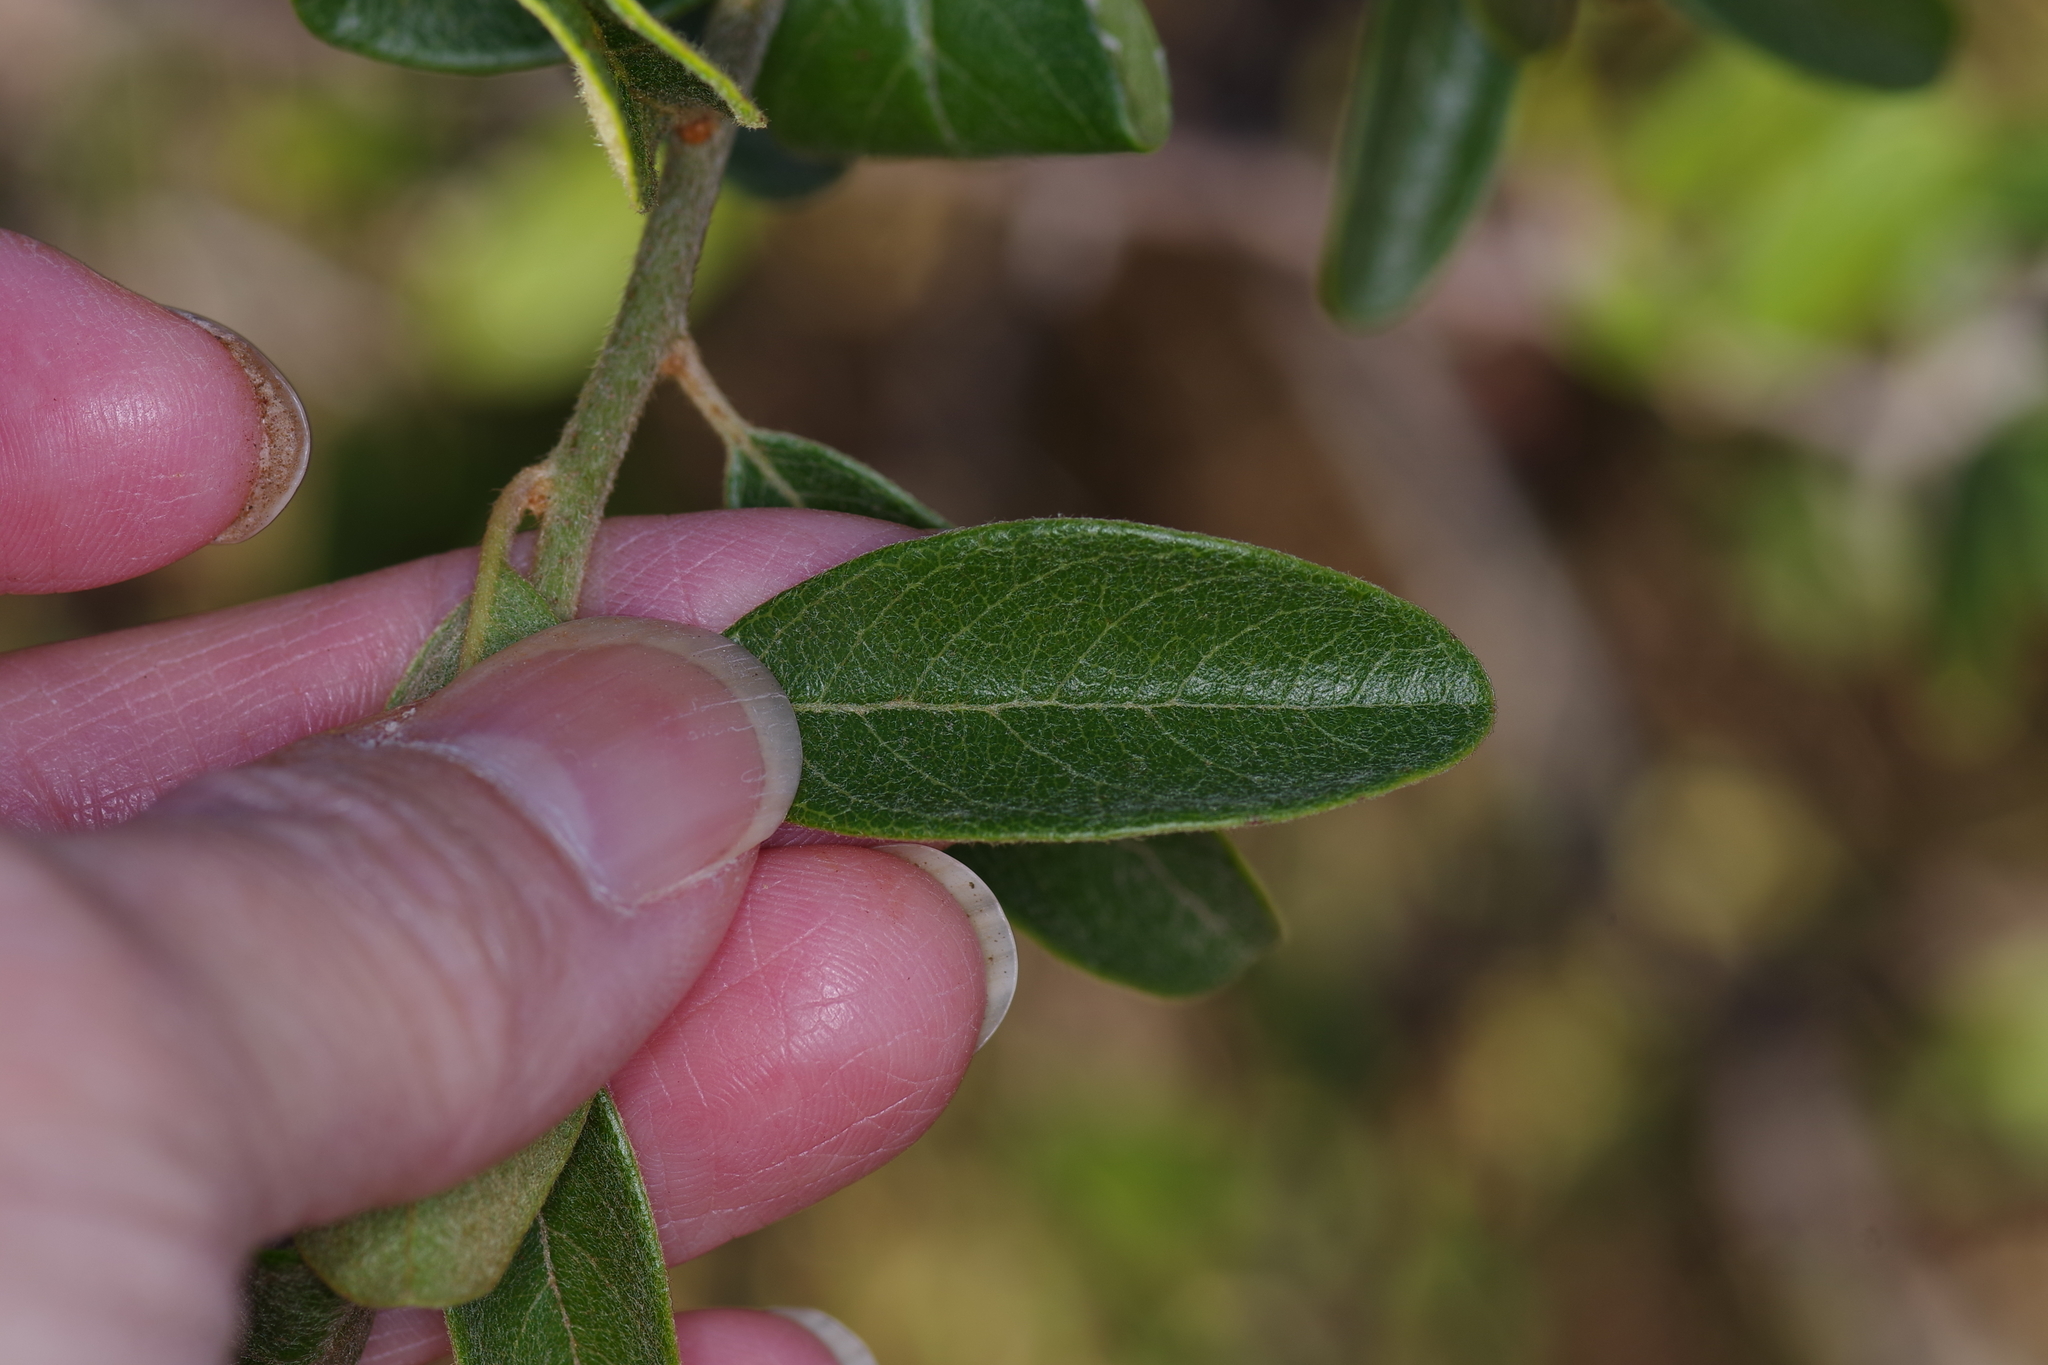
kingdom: Plantae
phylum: Tracheophyta
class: Magnoliopsida
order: Ericales
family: Sapotaceae
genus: Sideroxylon
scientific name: Sideroxylon lanuginosum
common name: Chittamwood
